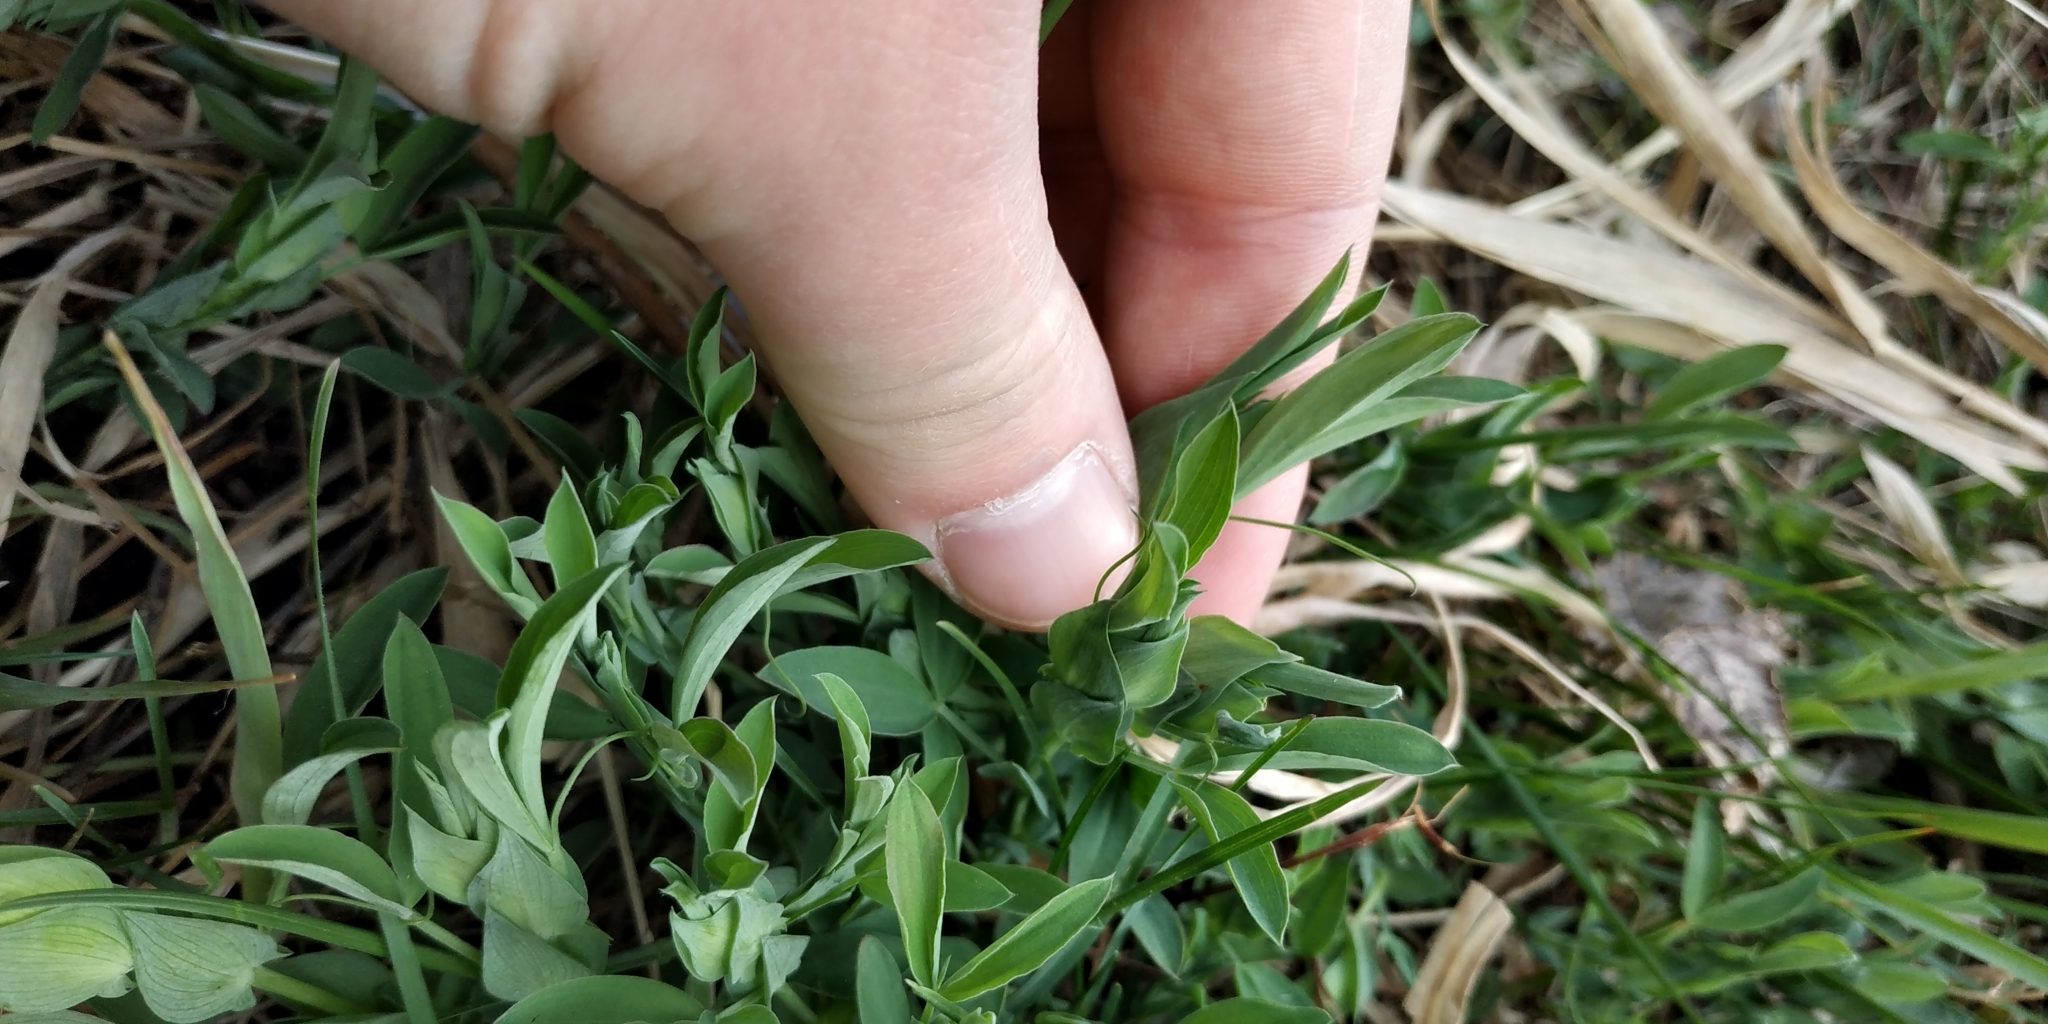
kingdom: Plantae
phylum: Tracheophyta
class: Magnoliopsida
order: Fabales
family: Fabaceae
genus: Lathyrus
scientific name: Lathyrus pratensis
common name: Meadow vetchling
